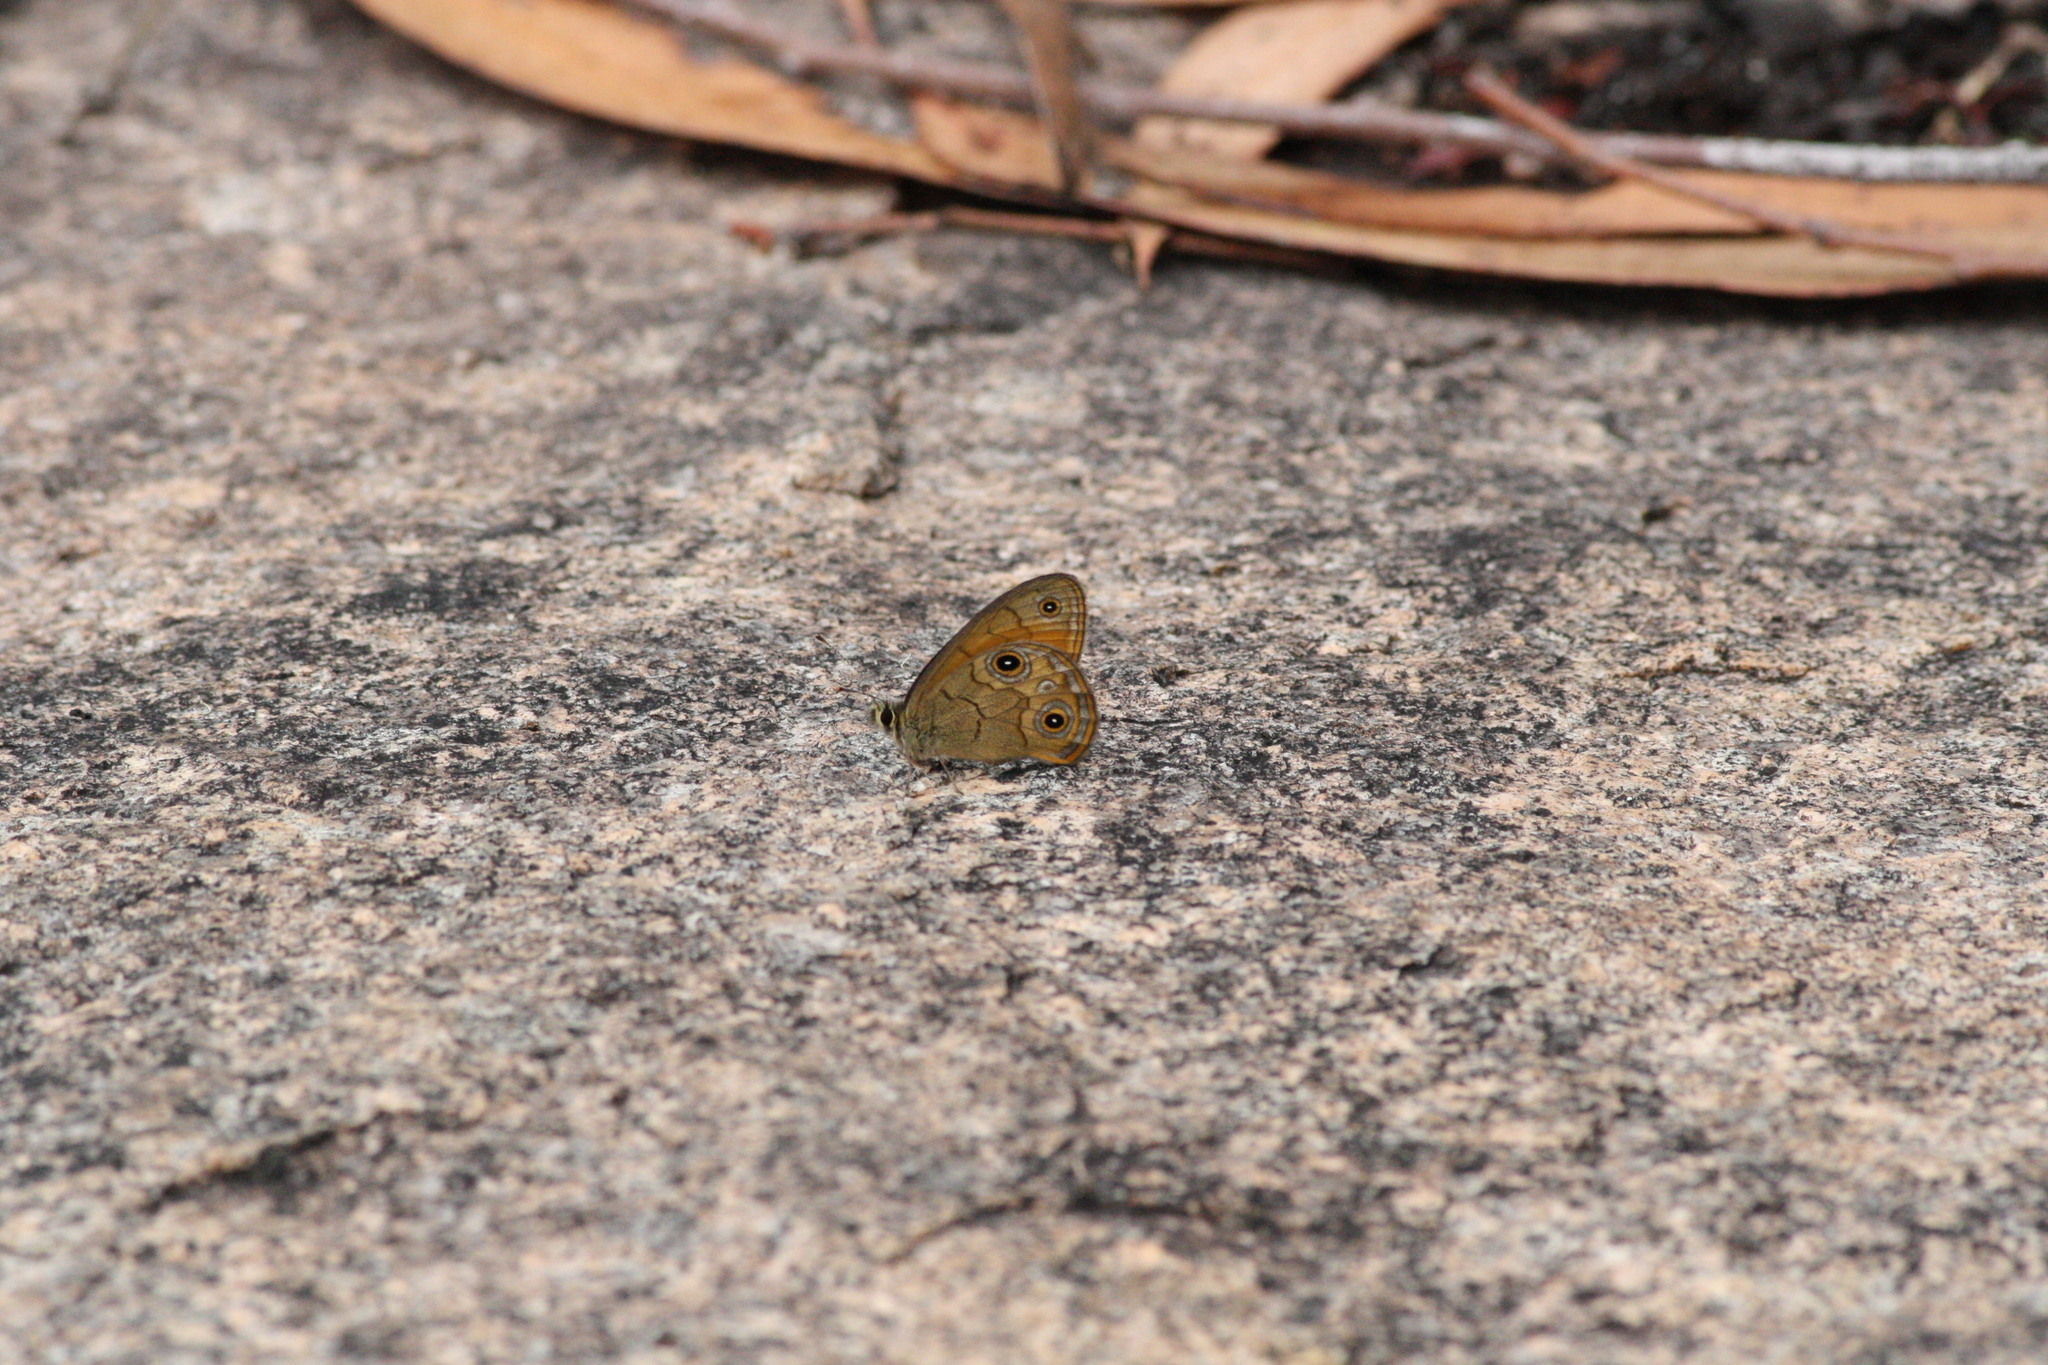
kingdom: Animalia
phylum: Arthropoda
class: Insecta
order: Lepidoptera
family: Nymphalidae
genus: Hypocysta
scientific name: Hypocysta euphemia
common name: Rock ringlet
